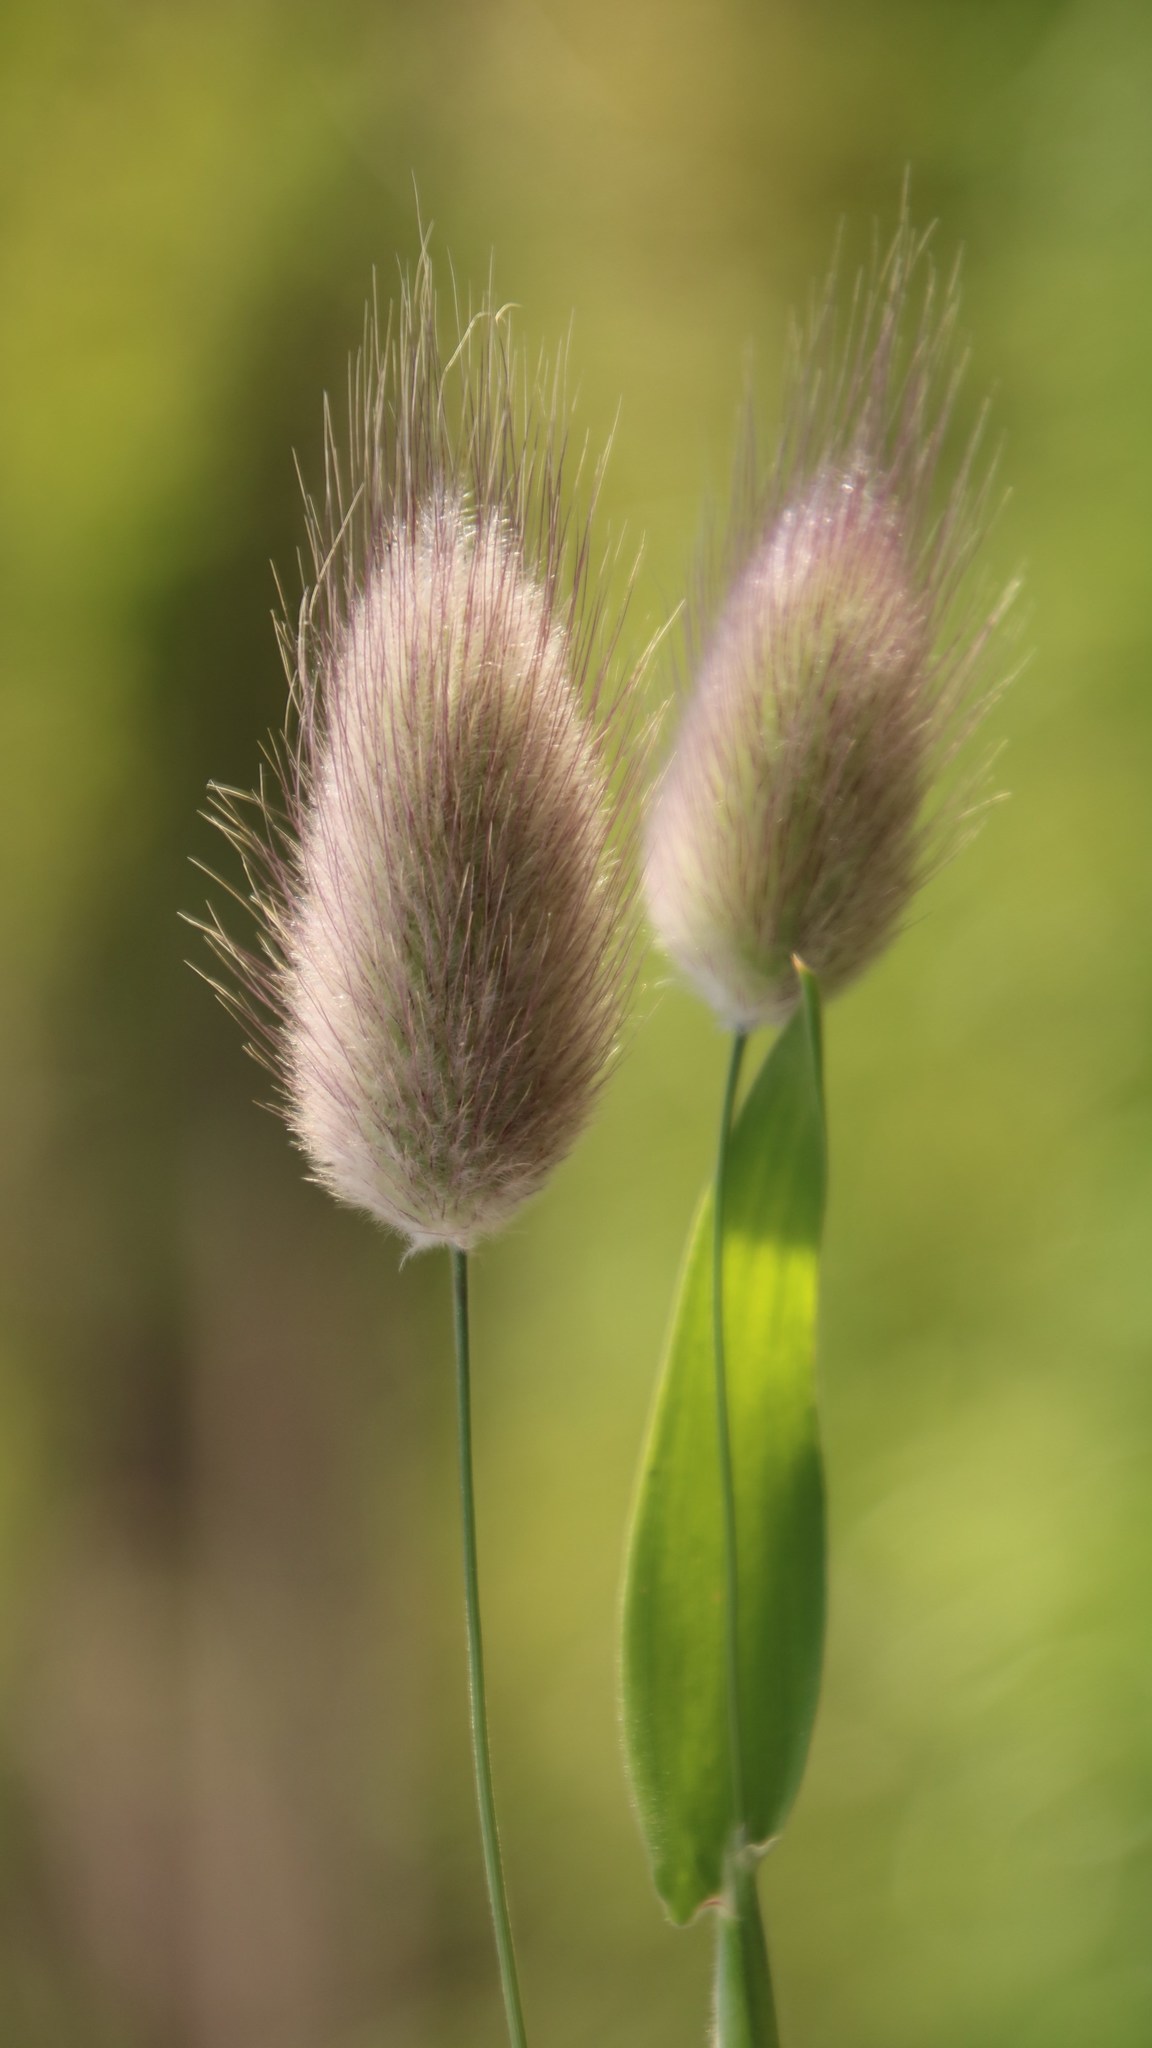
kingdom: Plantae
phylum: Tracheophyta
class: Liliopsida
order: Poales
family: Poaceae
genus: Lagurus
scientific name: Lagurus ovatus
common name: Hare's-tail
